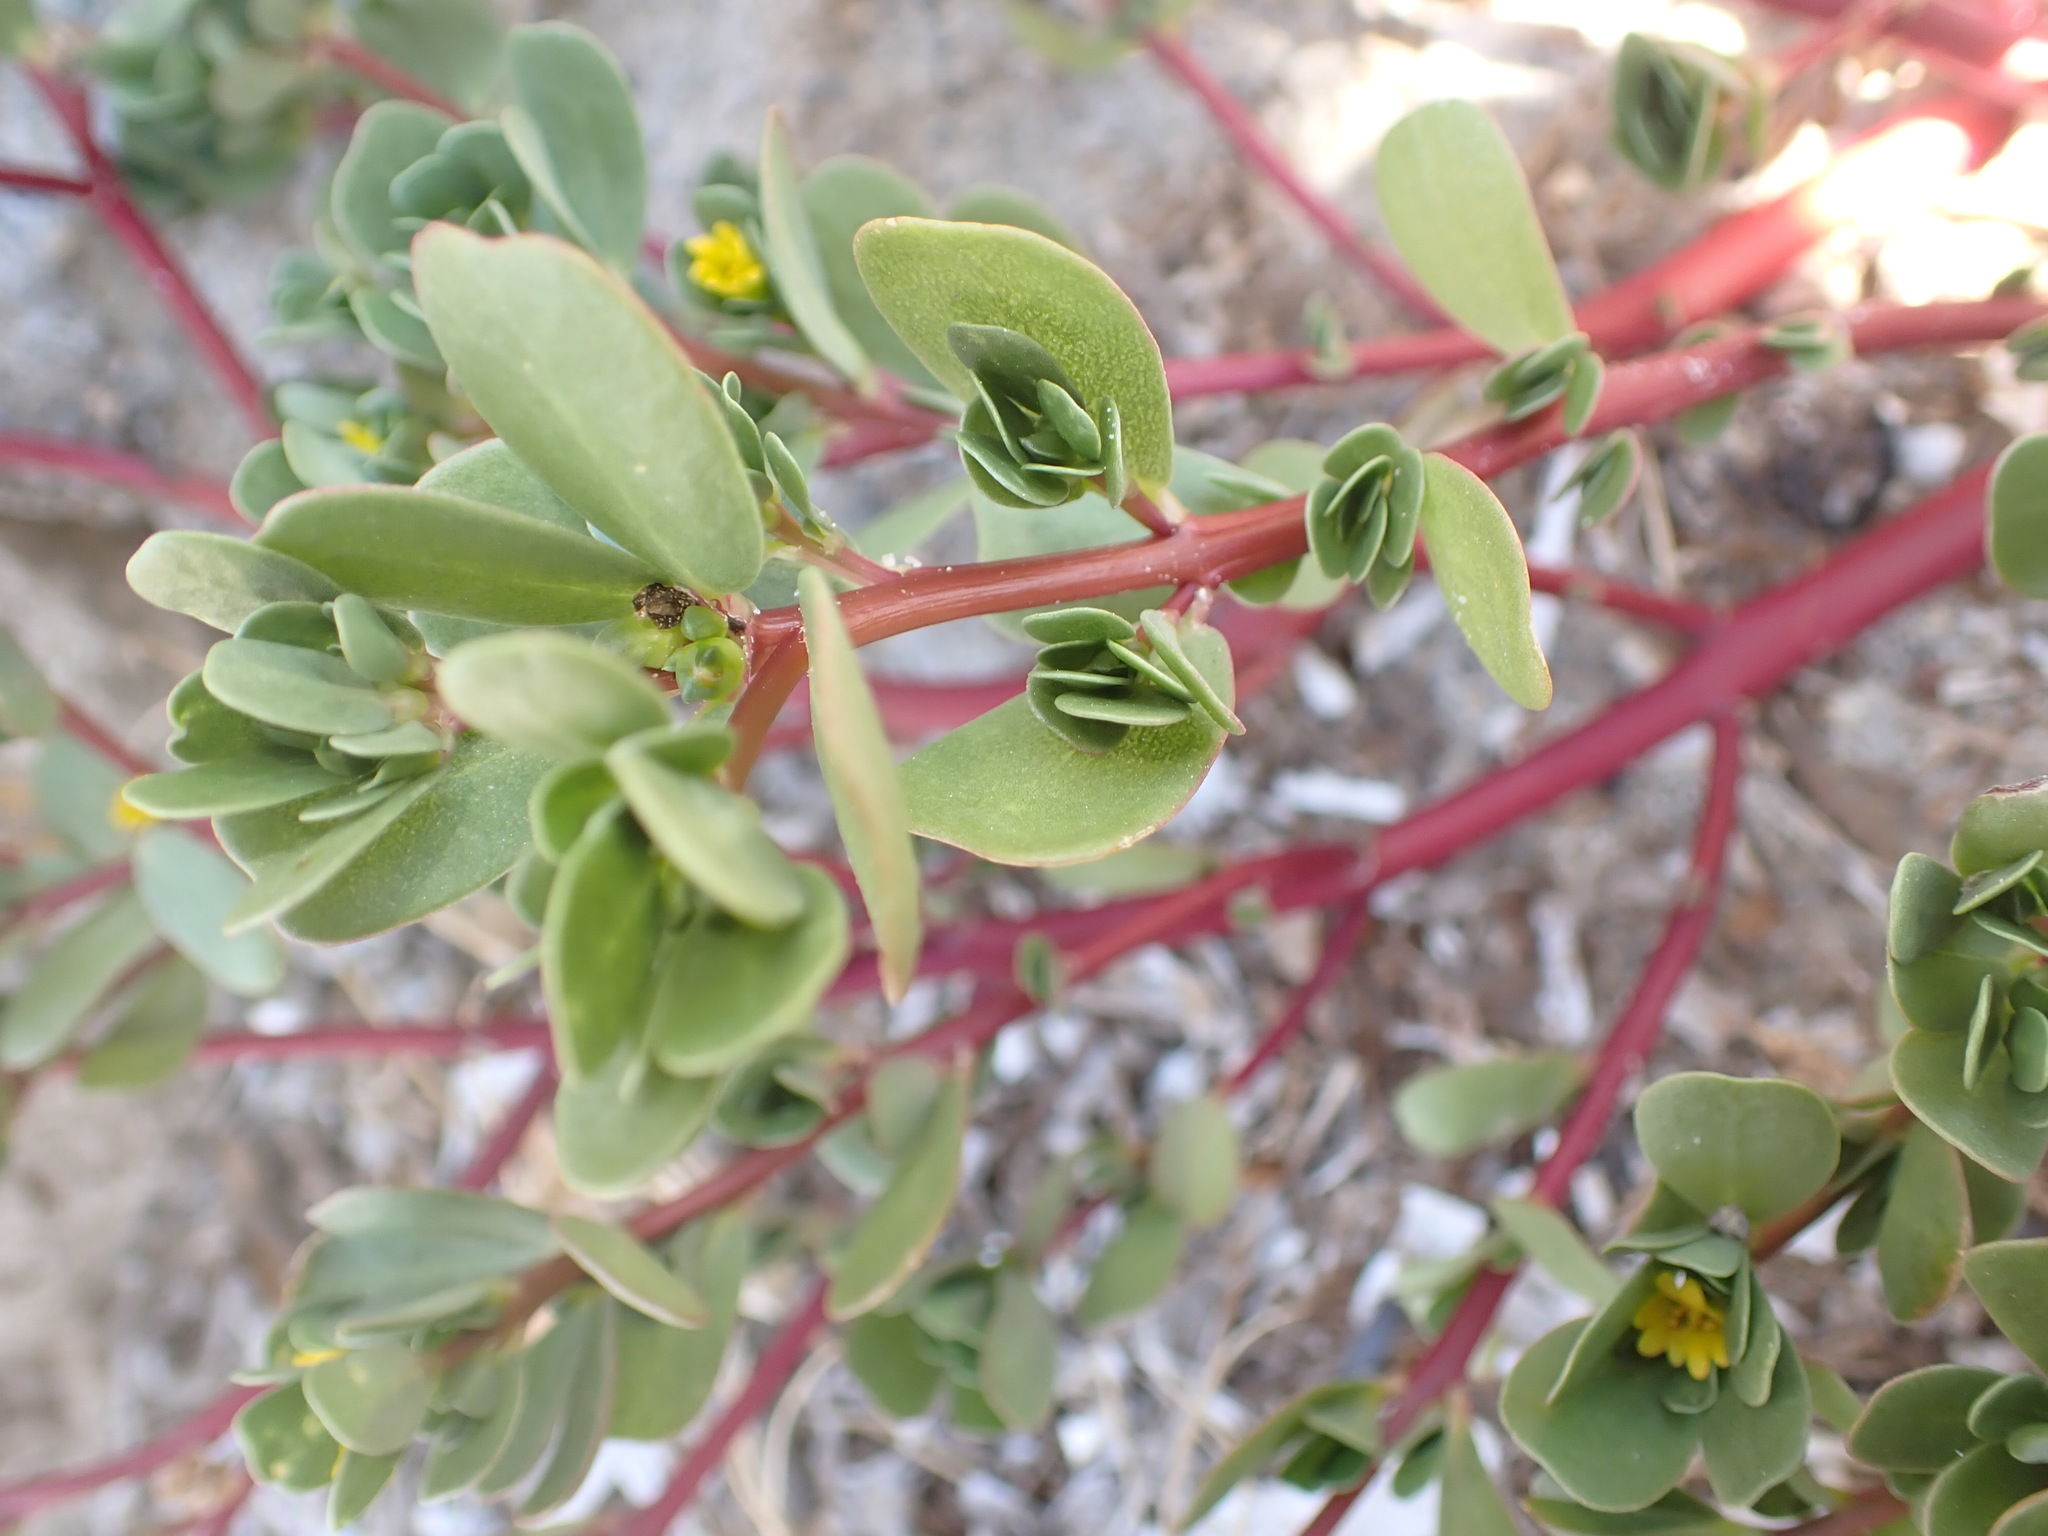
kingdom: Plantae
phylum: Tracheophyta
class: Magnoliopsida
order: Caryophyllales
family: Portulacaceae
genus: Portulaca
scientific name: Portulaca oleracea
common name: Common purslane
